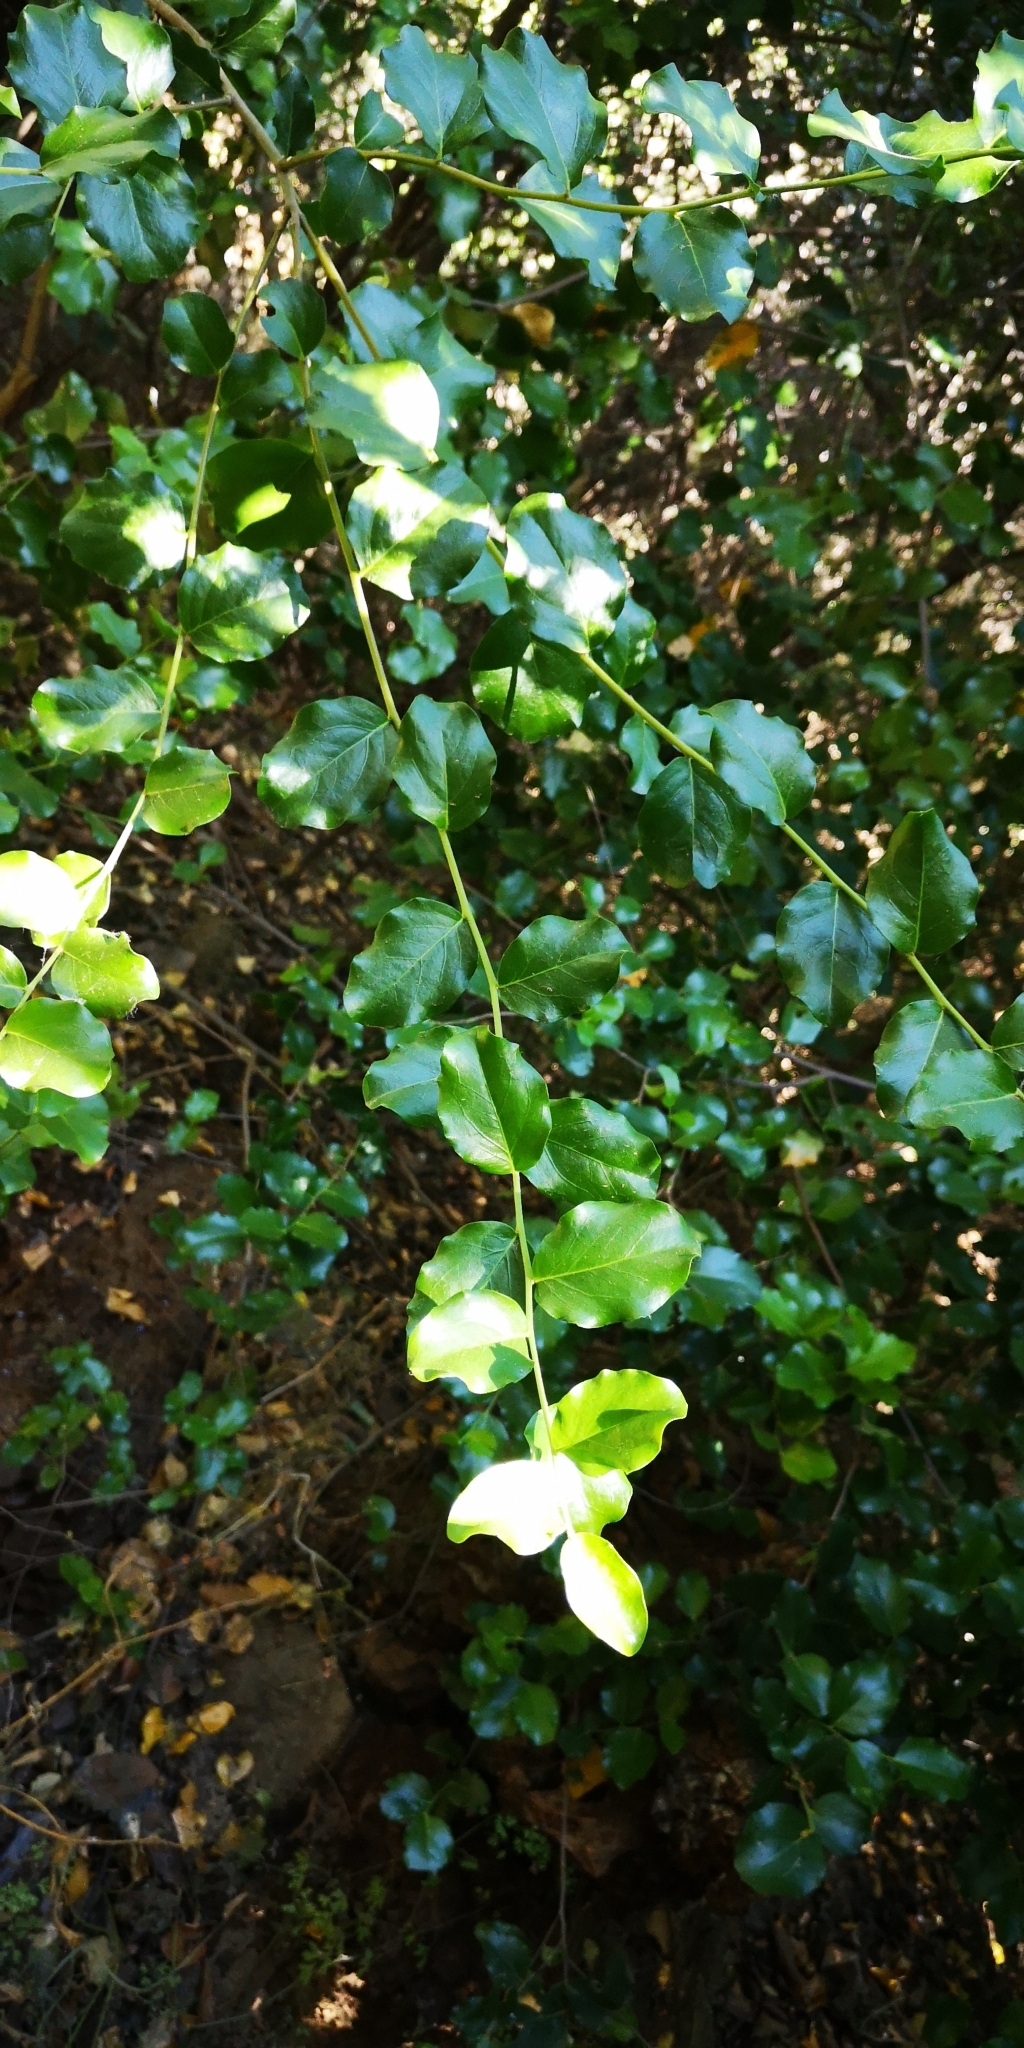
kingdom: Plantae
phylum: Tracheophyta
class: Magnoliopsida
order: Fabales
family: Quillajaceae
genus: Quillaja
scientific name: Quillaja saponaria
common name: Murillo's-bark
